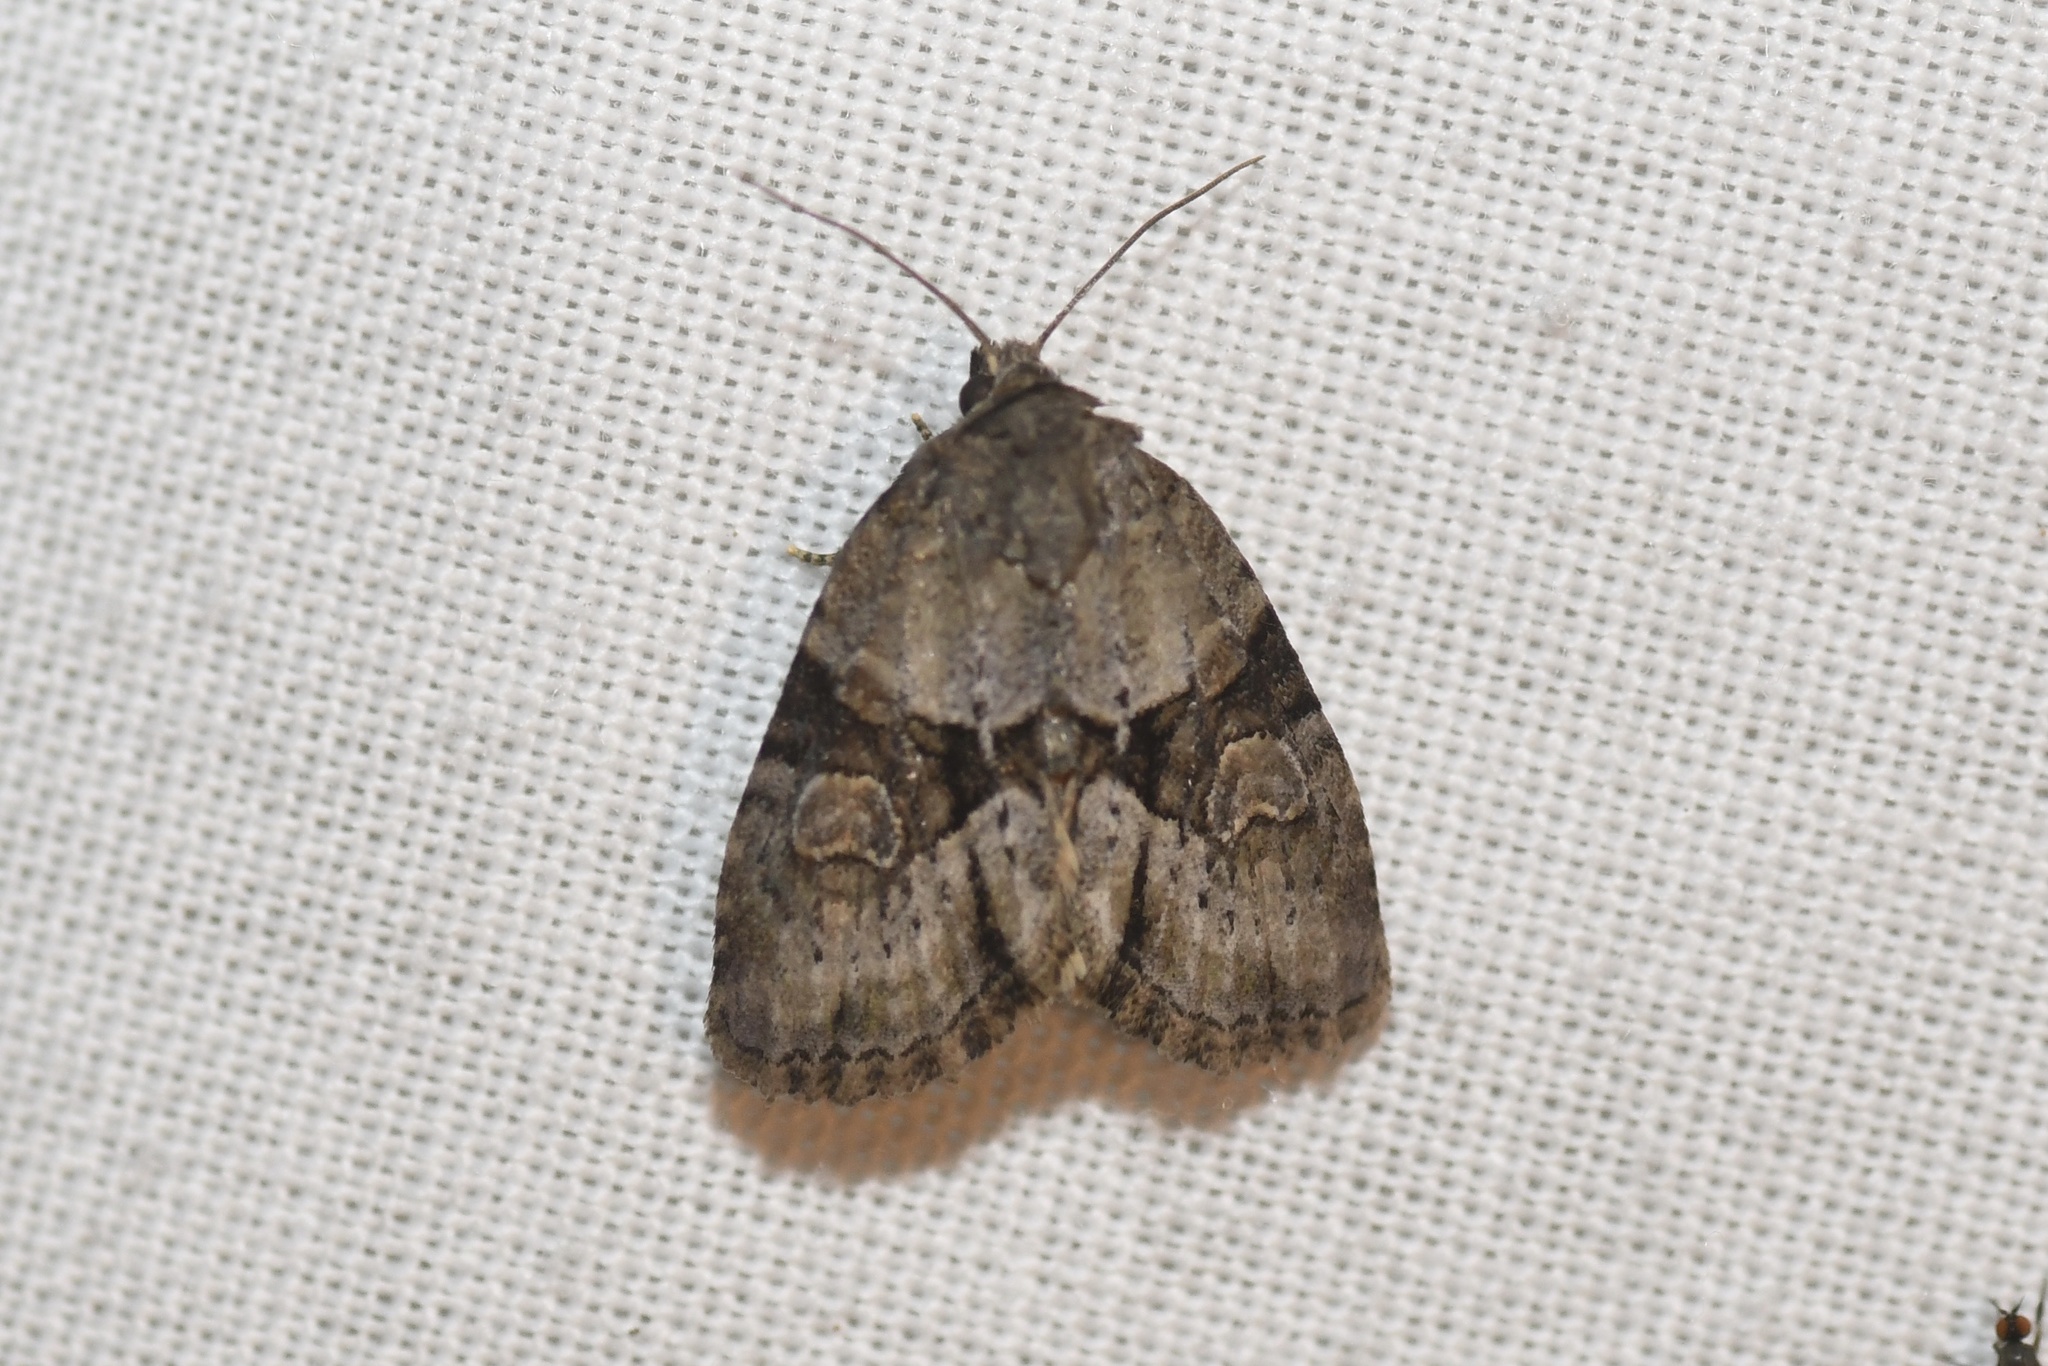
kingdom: Animalia
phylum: Arthropoda
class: Insecta
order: Lepidoptera
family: Noctuidae
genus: Neoligia
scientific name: Neoligia exhausta
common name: Exhausted brocade
